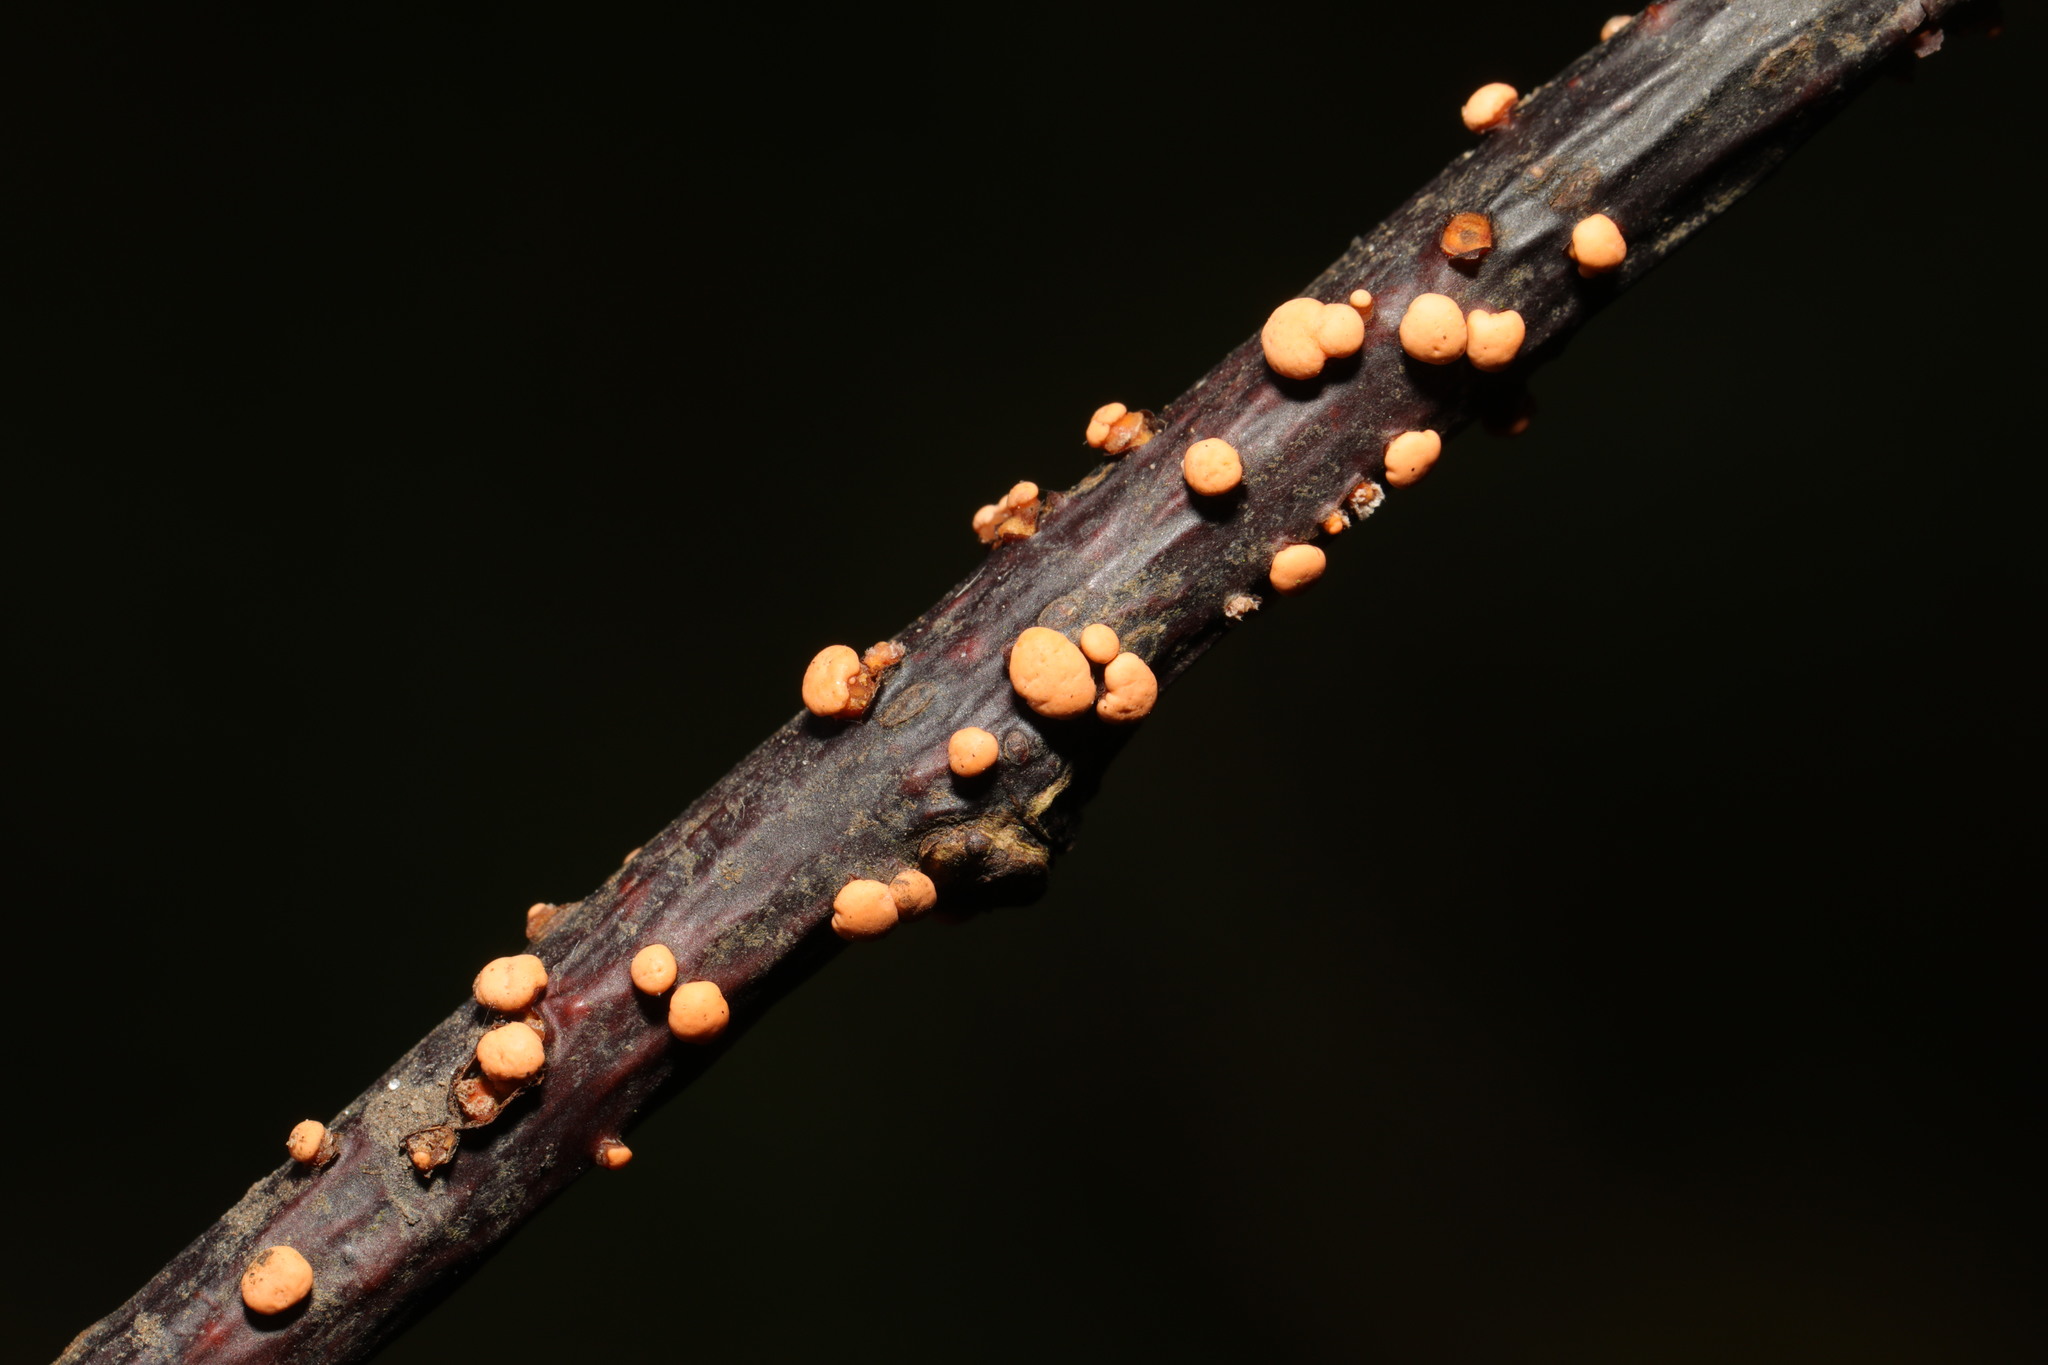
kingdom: Fungi
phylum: Ascomycota
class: Sordariomycetes
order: Hypocreales
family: Nectriaceae
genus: Nectria
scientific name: Nectria cinnabarina
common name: Coral spot
